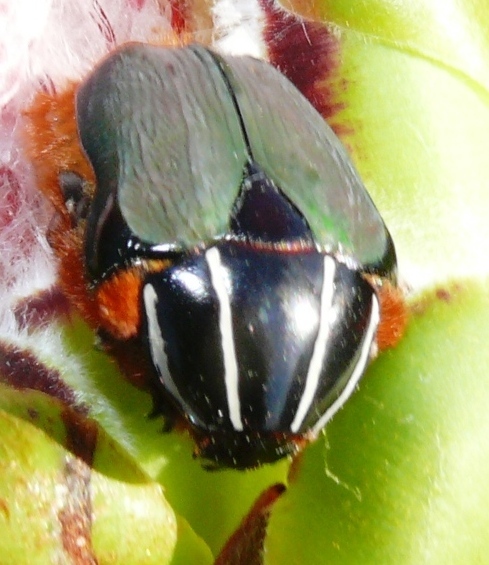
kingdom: Animalia
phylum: Arthropoda
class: Insecta
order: Coleoptera
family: Scarabaeidae
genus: Trichostetha
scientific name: Trichostetha fascicularis
